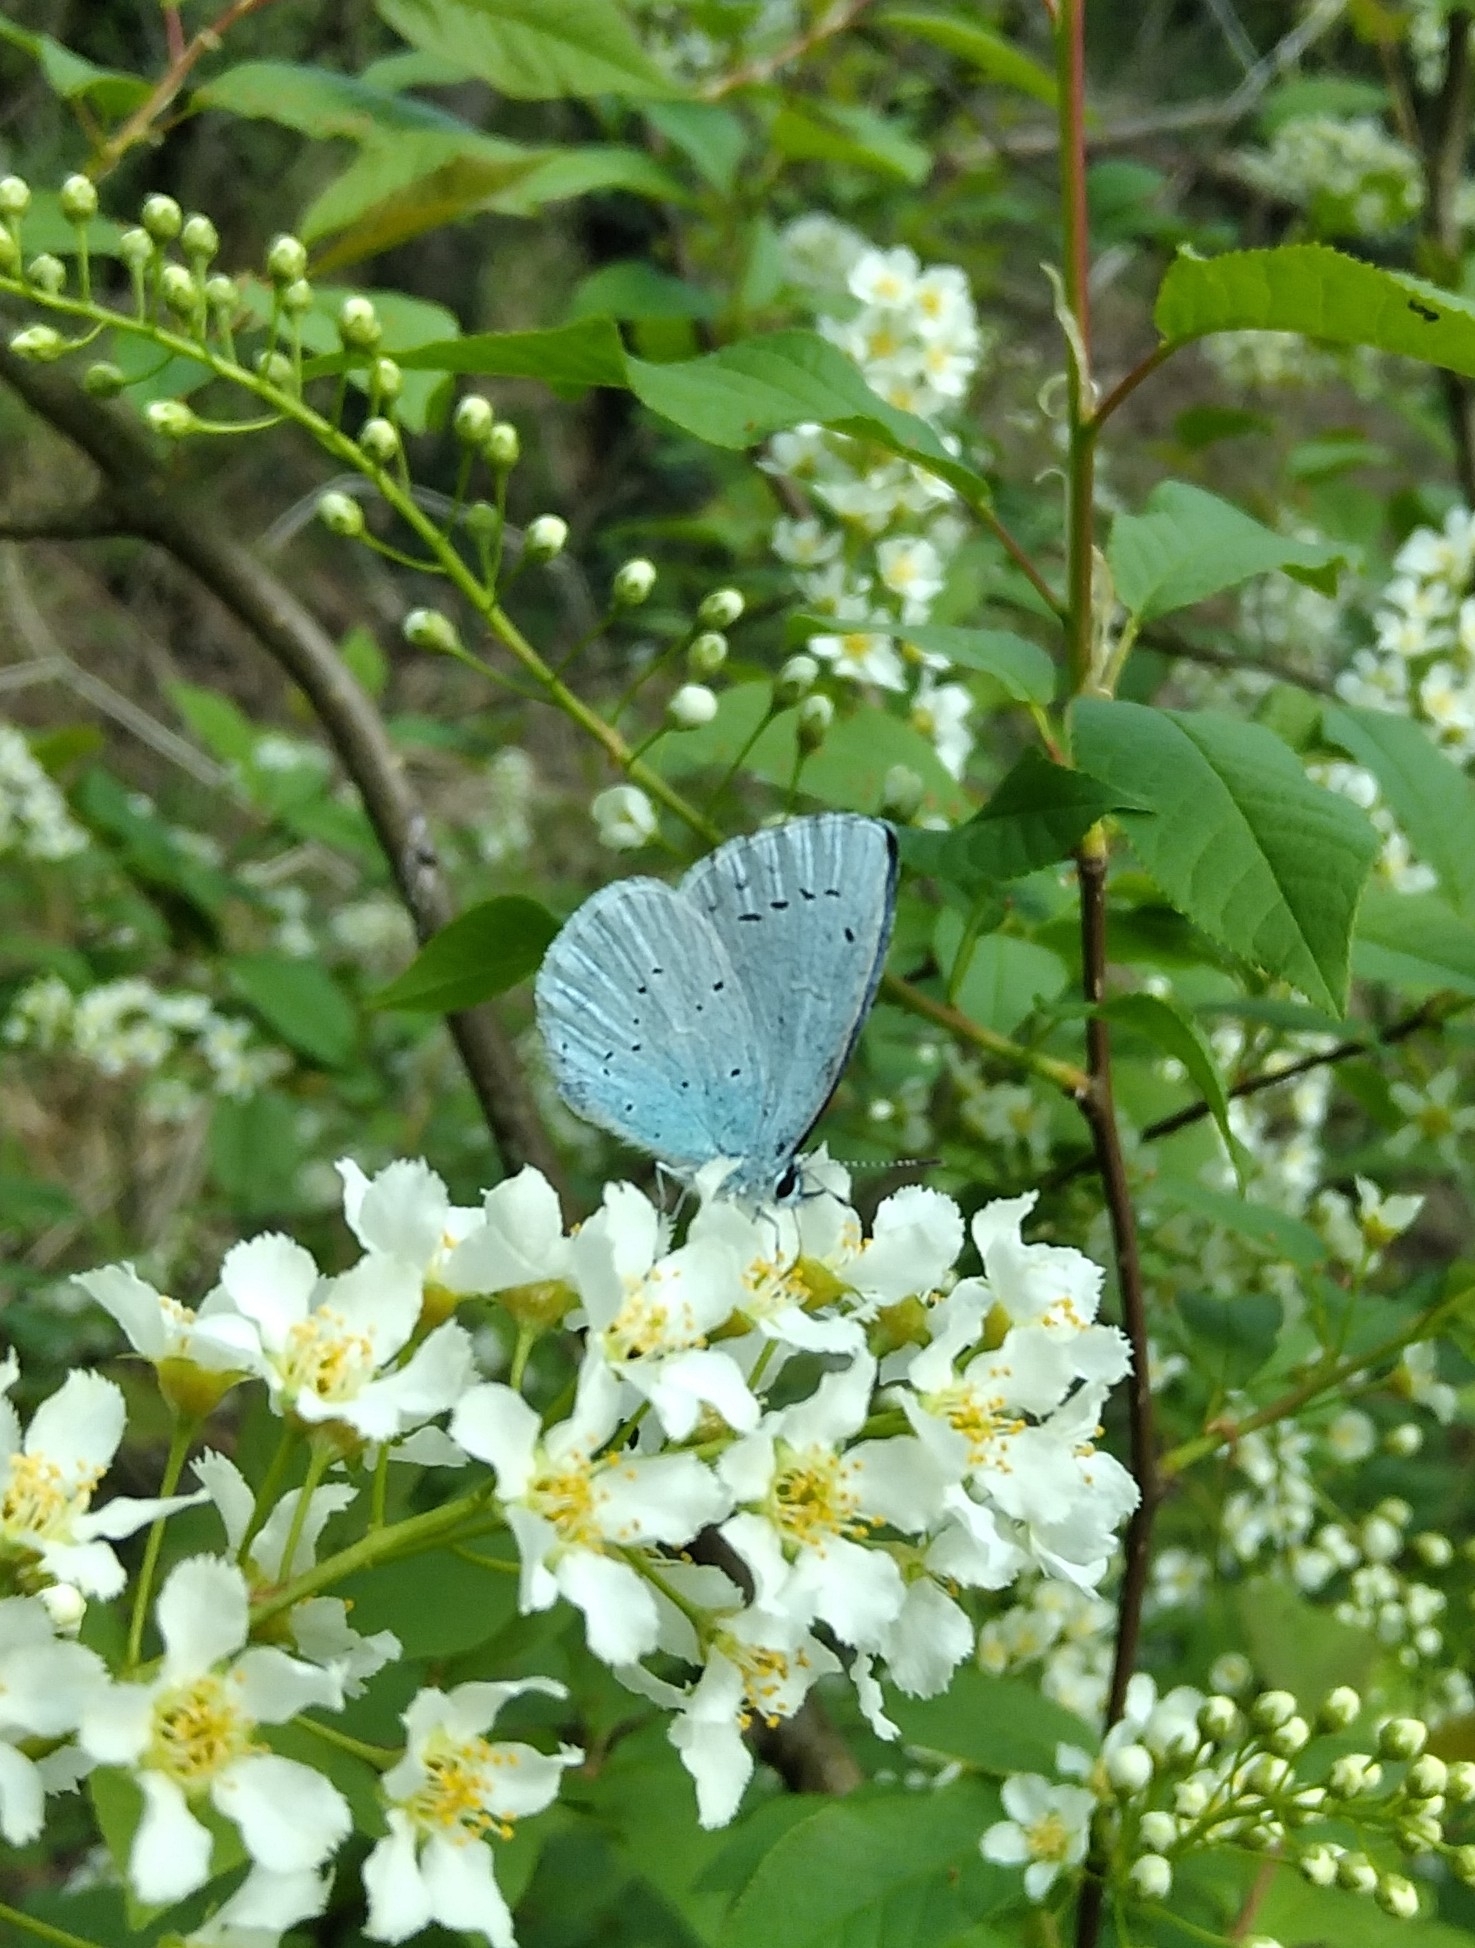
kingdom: Animalia
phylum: Arthropoda
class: Insecta
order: Lepidoptera
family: Lycaenidae
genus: Celastrina
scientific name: Celastrina argiolus
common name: Holly blue
